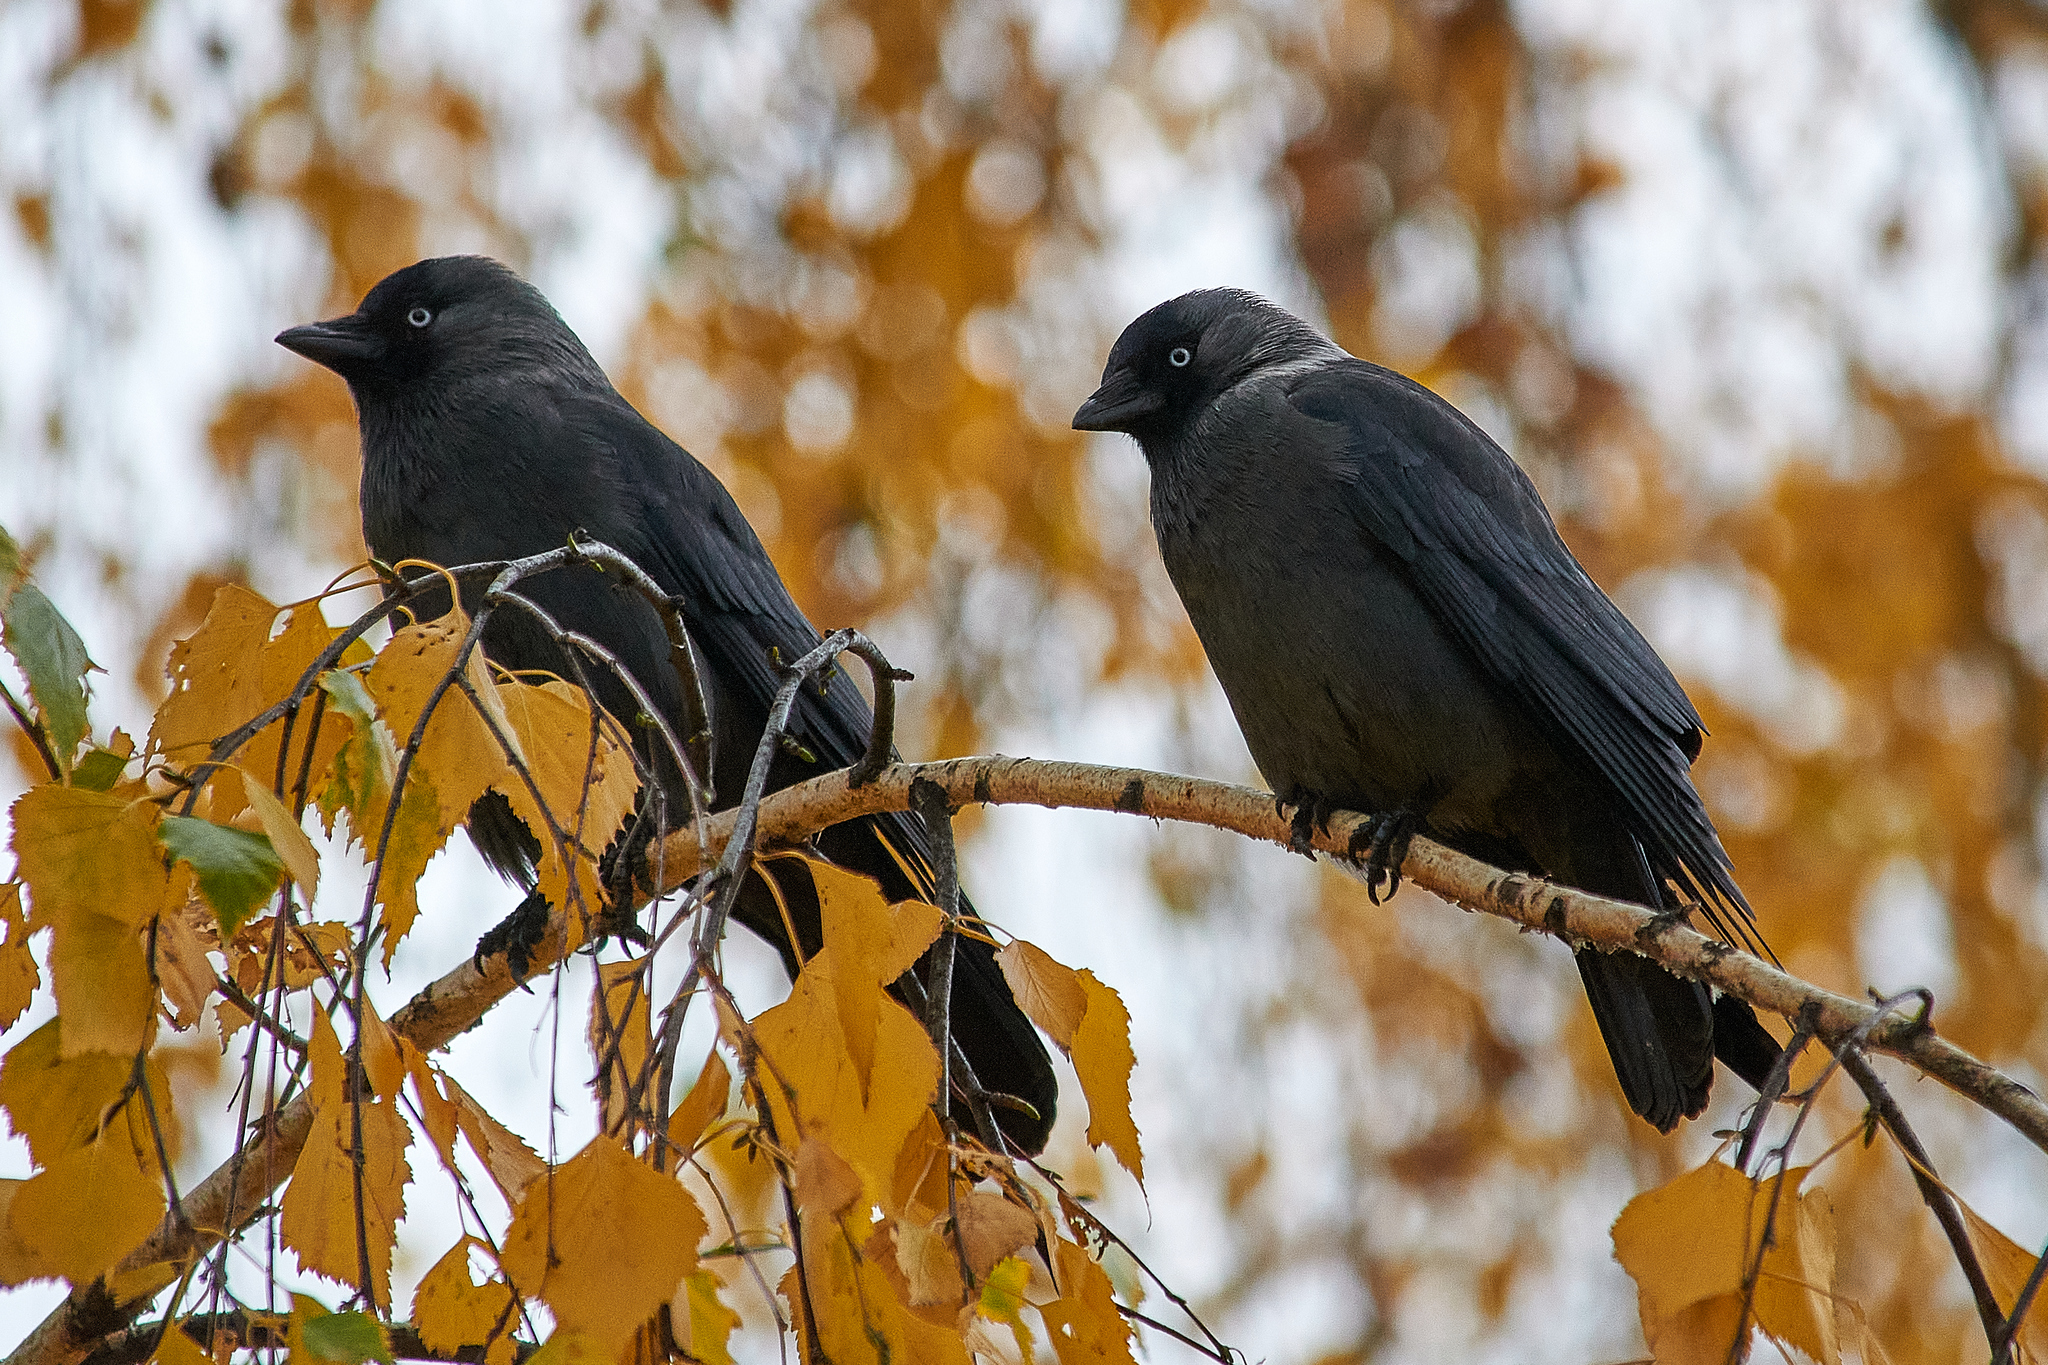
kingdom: Animalia
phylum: Chordata
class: Aves
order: Passeriformes
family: Corvidae
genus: Coloeus
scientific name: Coloeus monedula
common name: Western jackdaw
